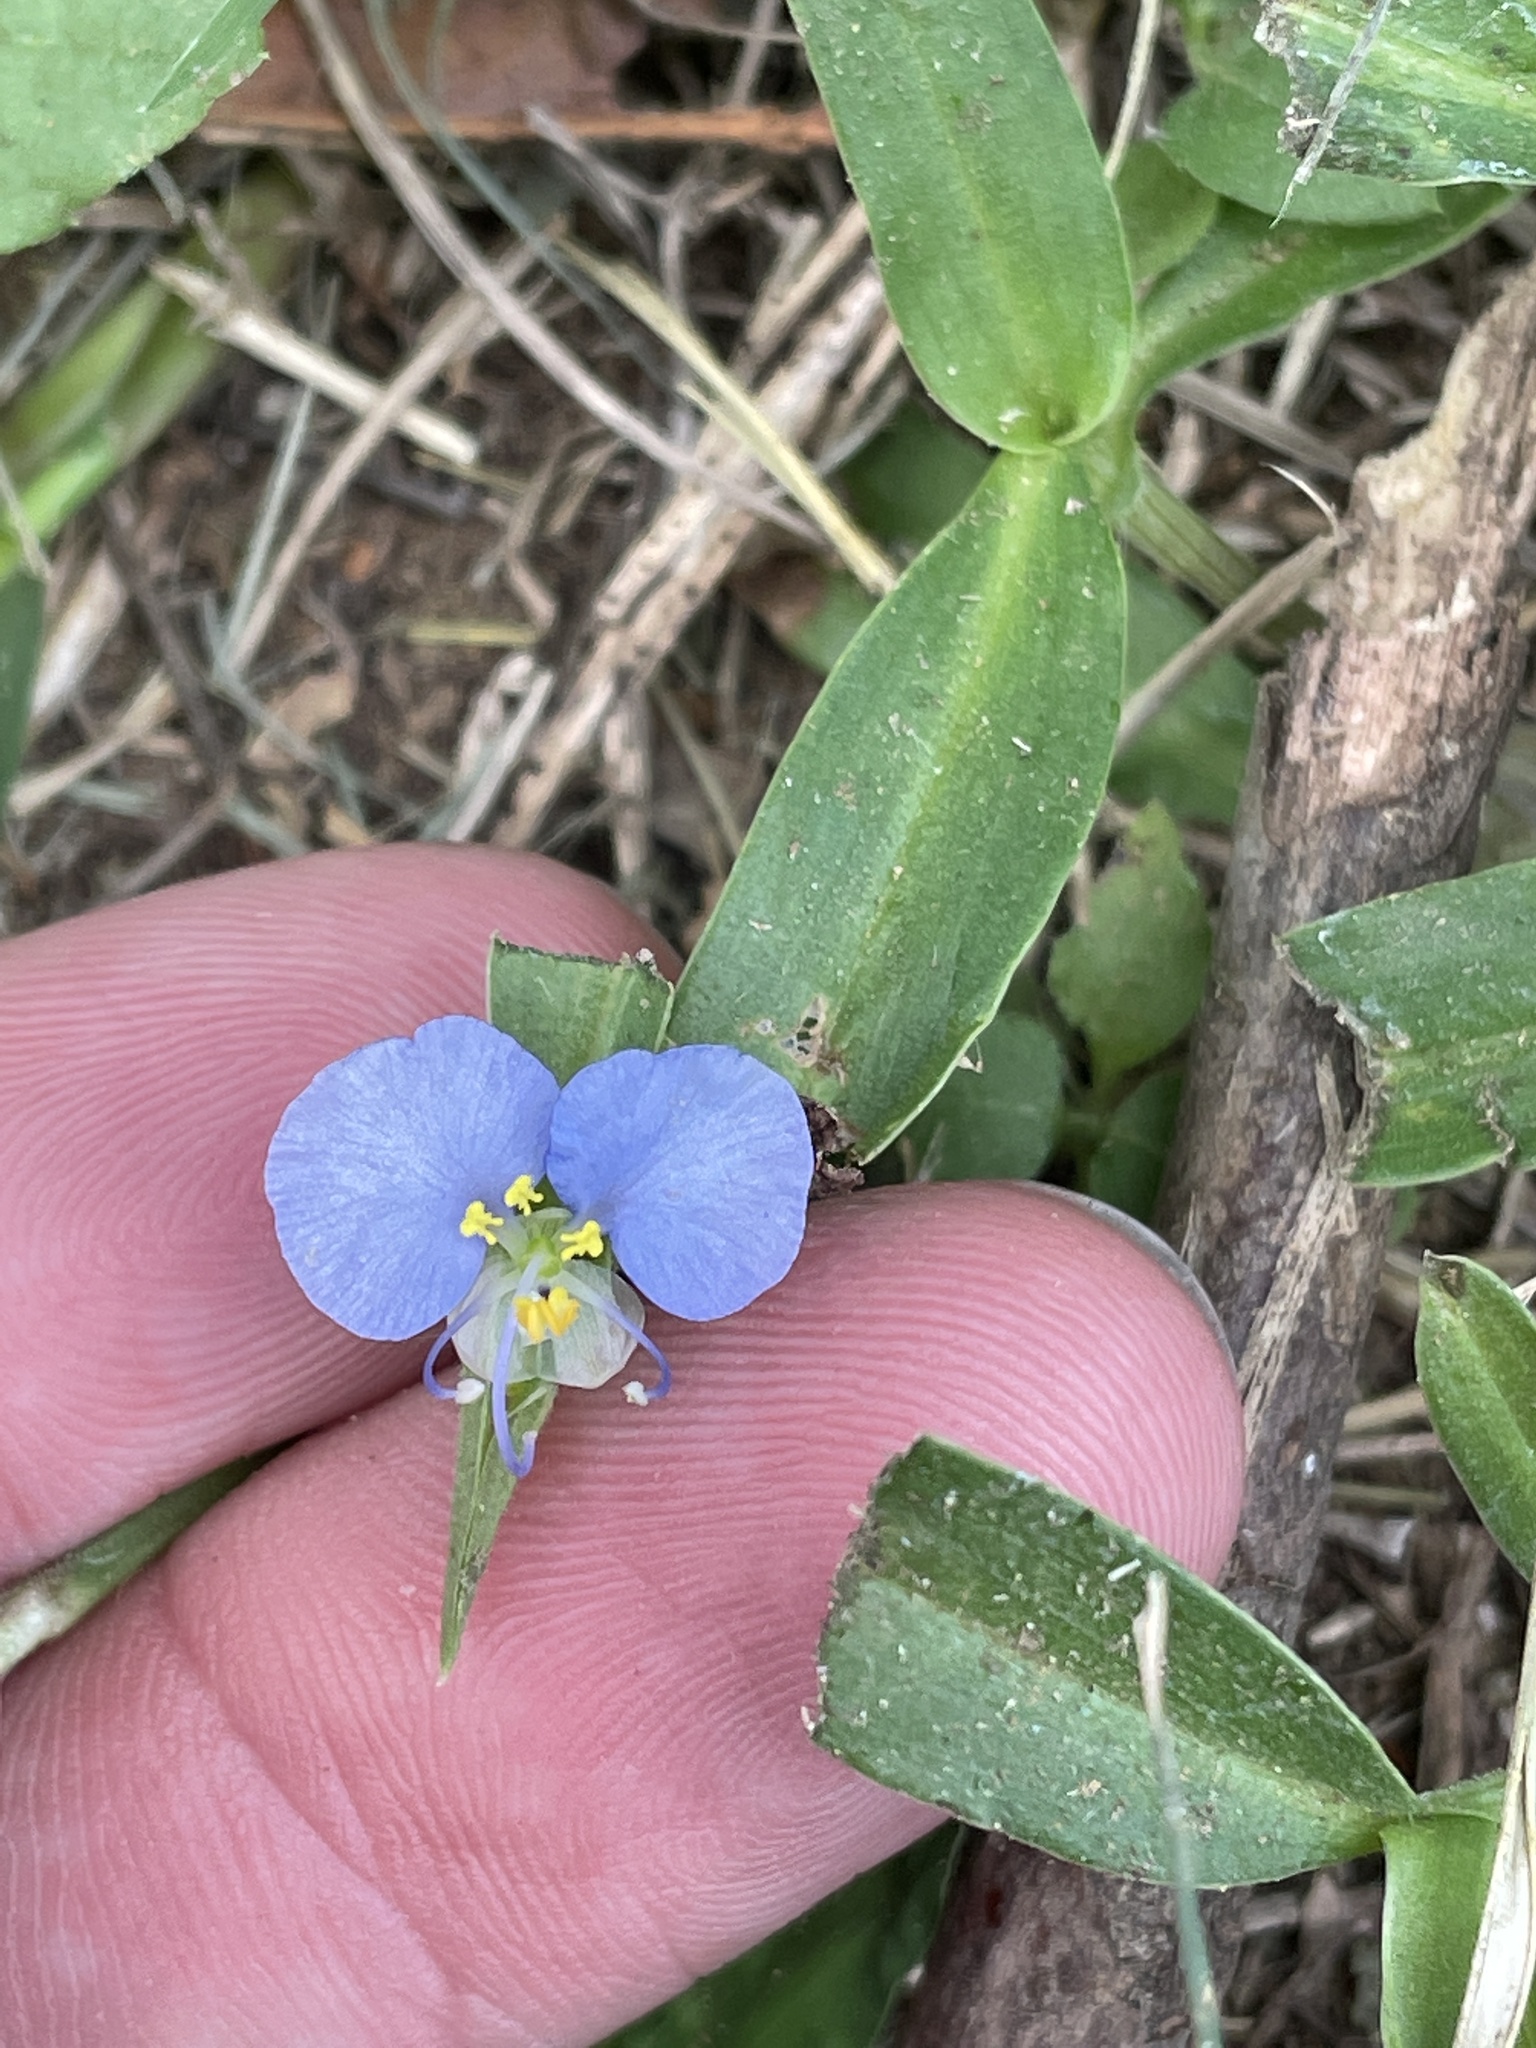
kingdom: Plantae
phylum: Tracheophyta
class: Liliopsida
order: Commelinales
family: Commelinaceae
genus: Commelina
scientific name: Commelina erecta
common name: Blousel blommetjie
